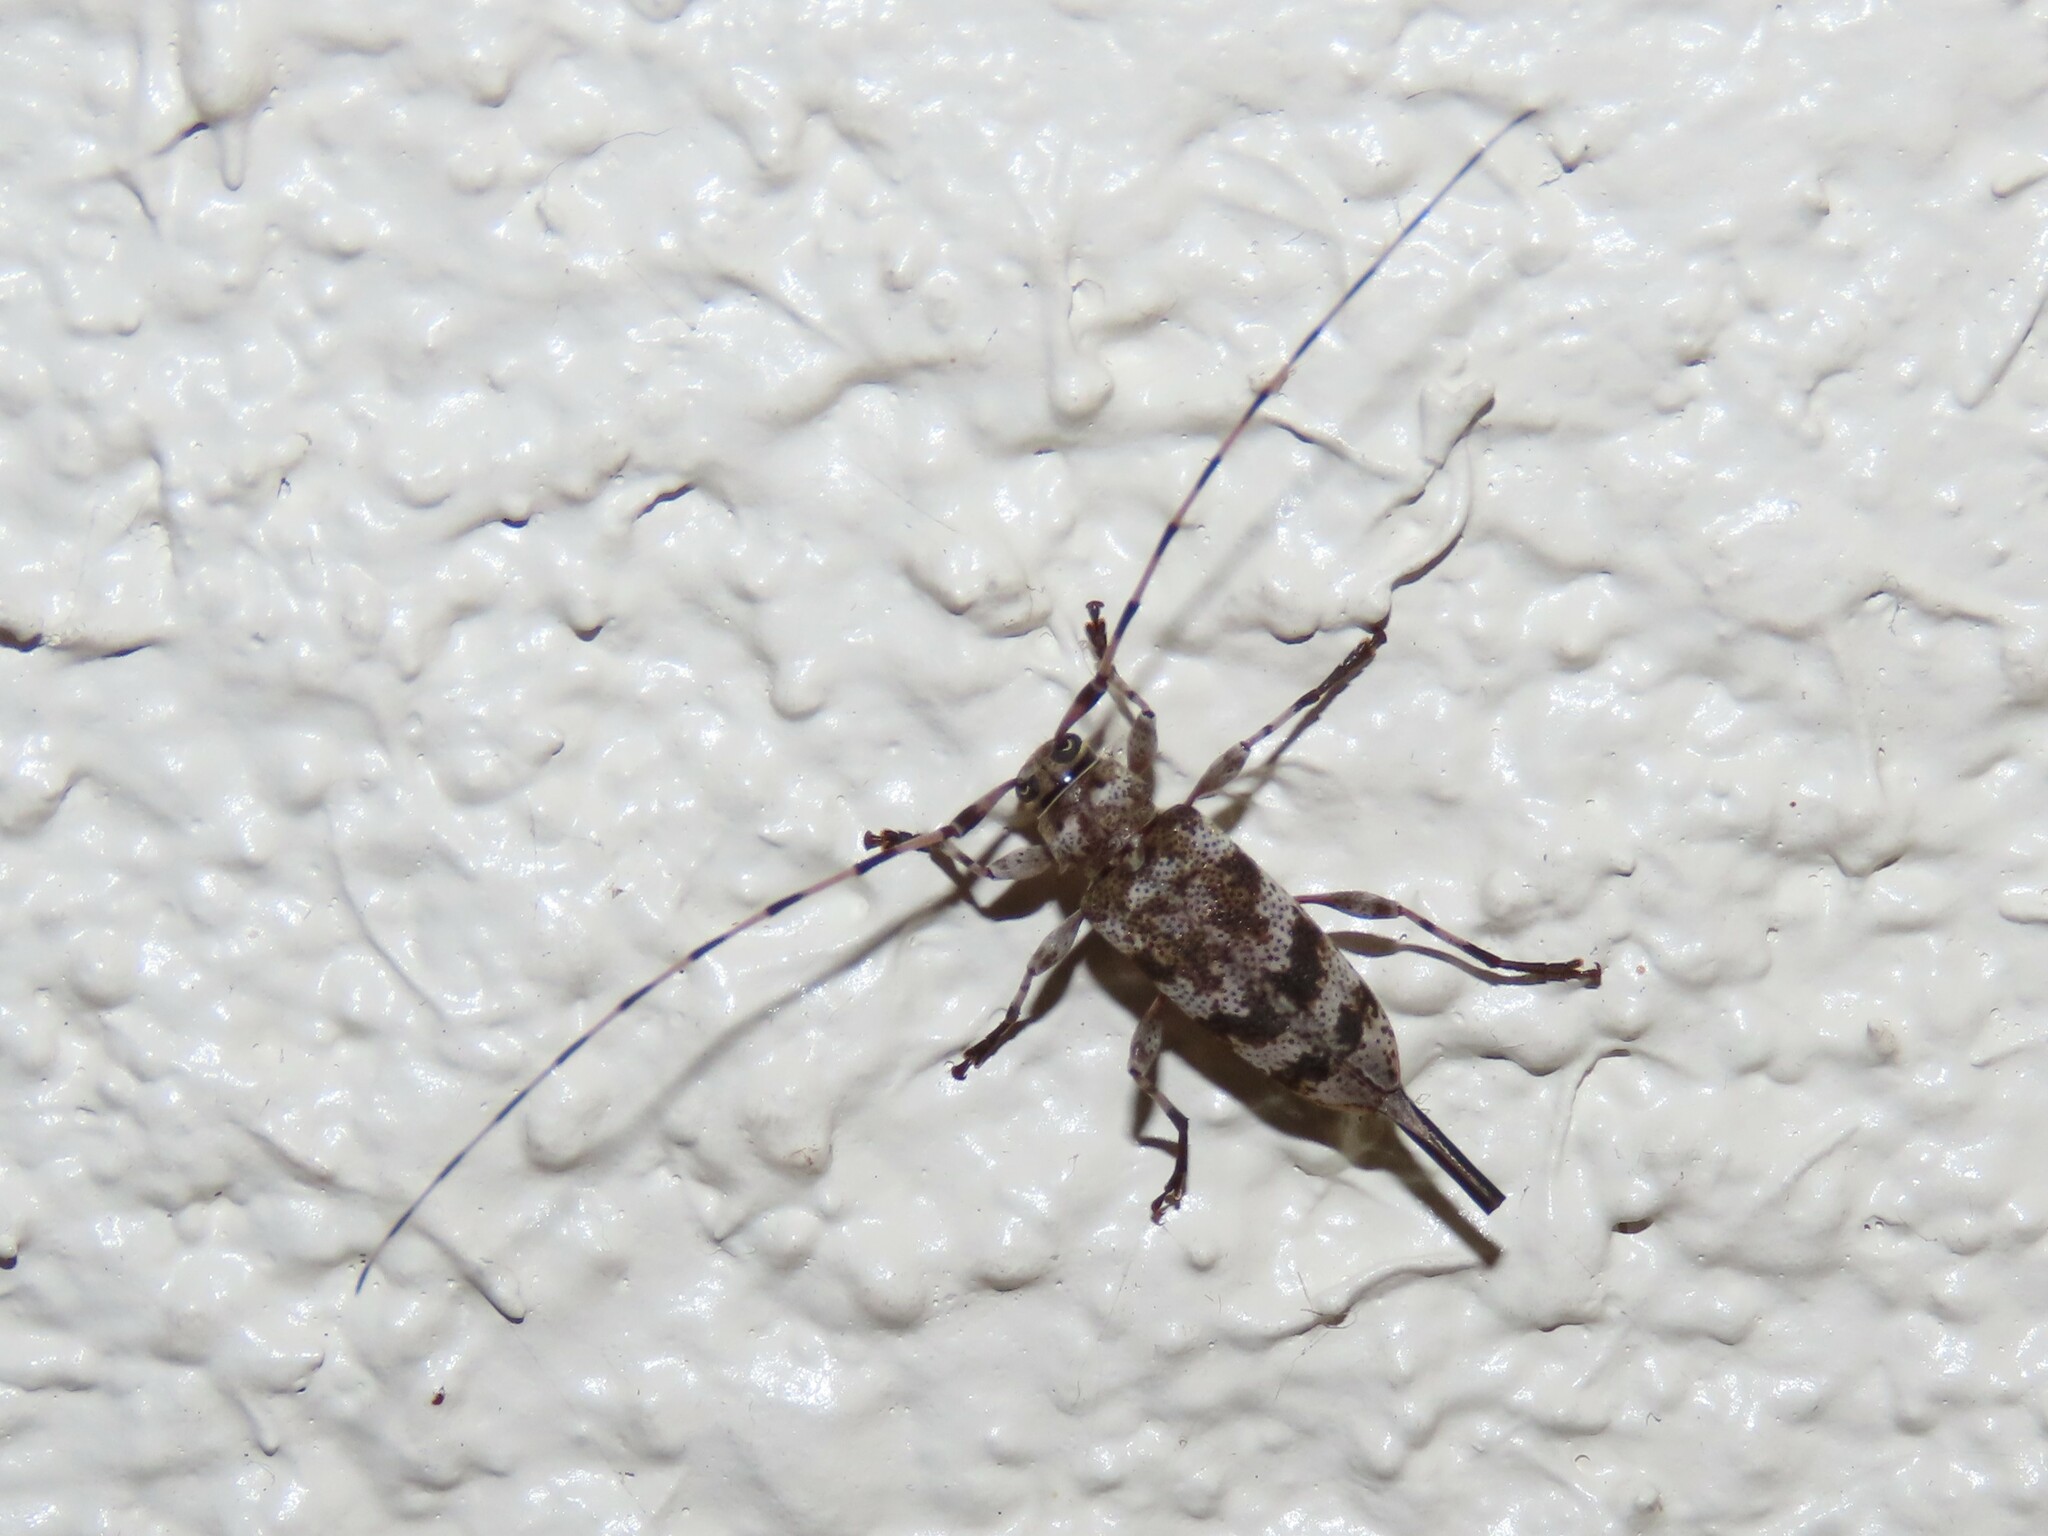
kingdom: Animalia
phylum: Arthropoda
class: Insecta
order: Coleoptera
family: Cerambycidae
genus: Acanthocinus
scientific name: Acanthocinus obsoletus
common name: Roundheaded borer
